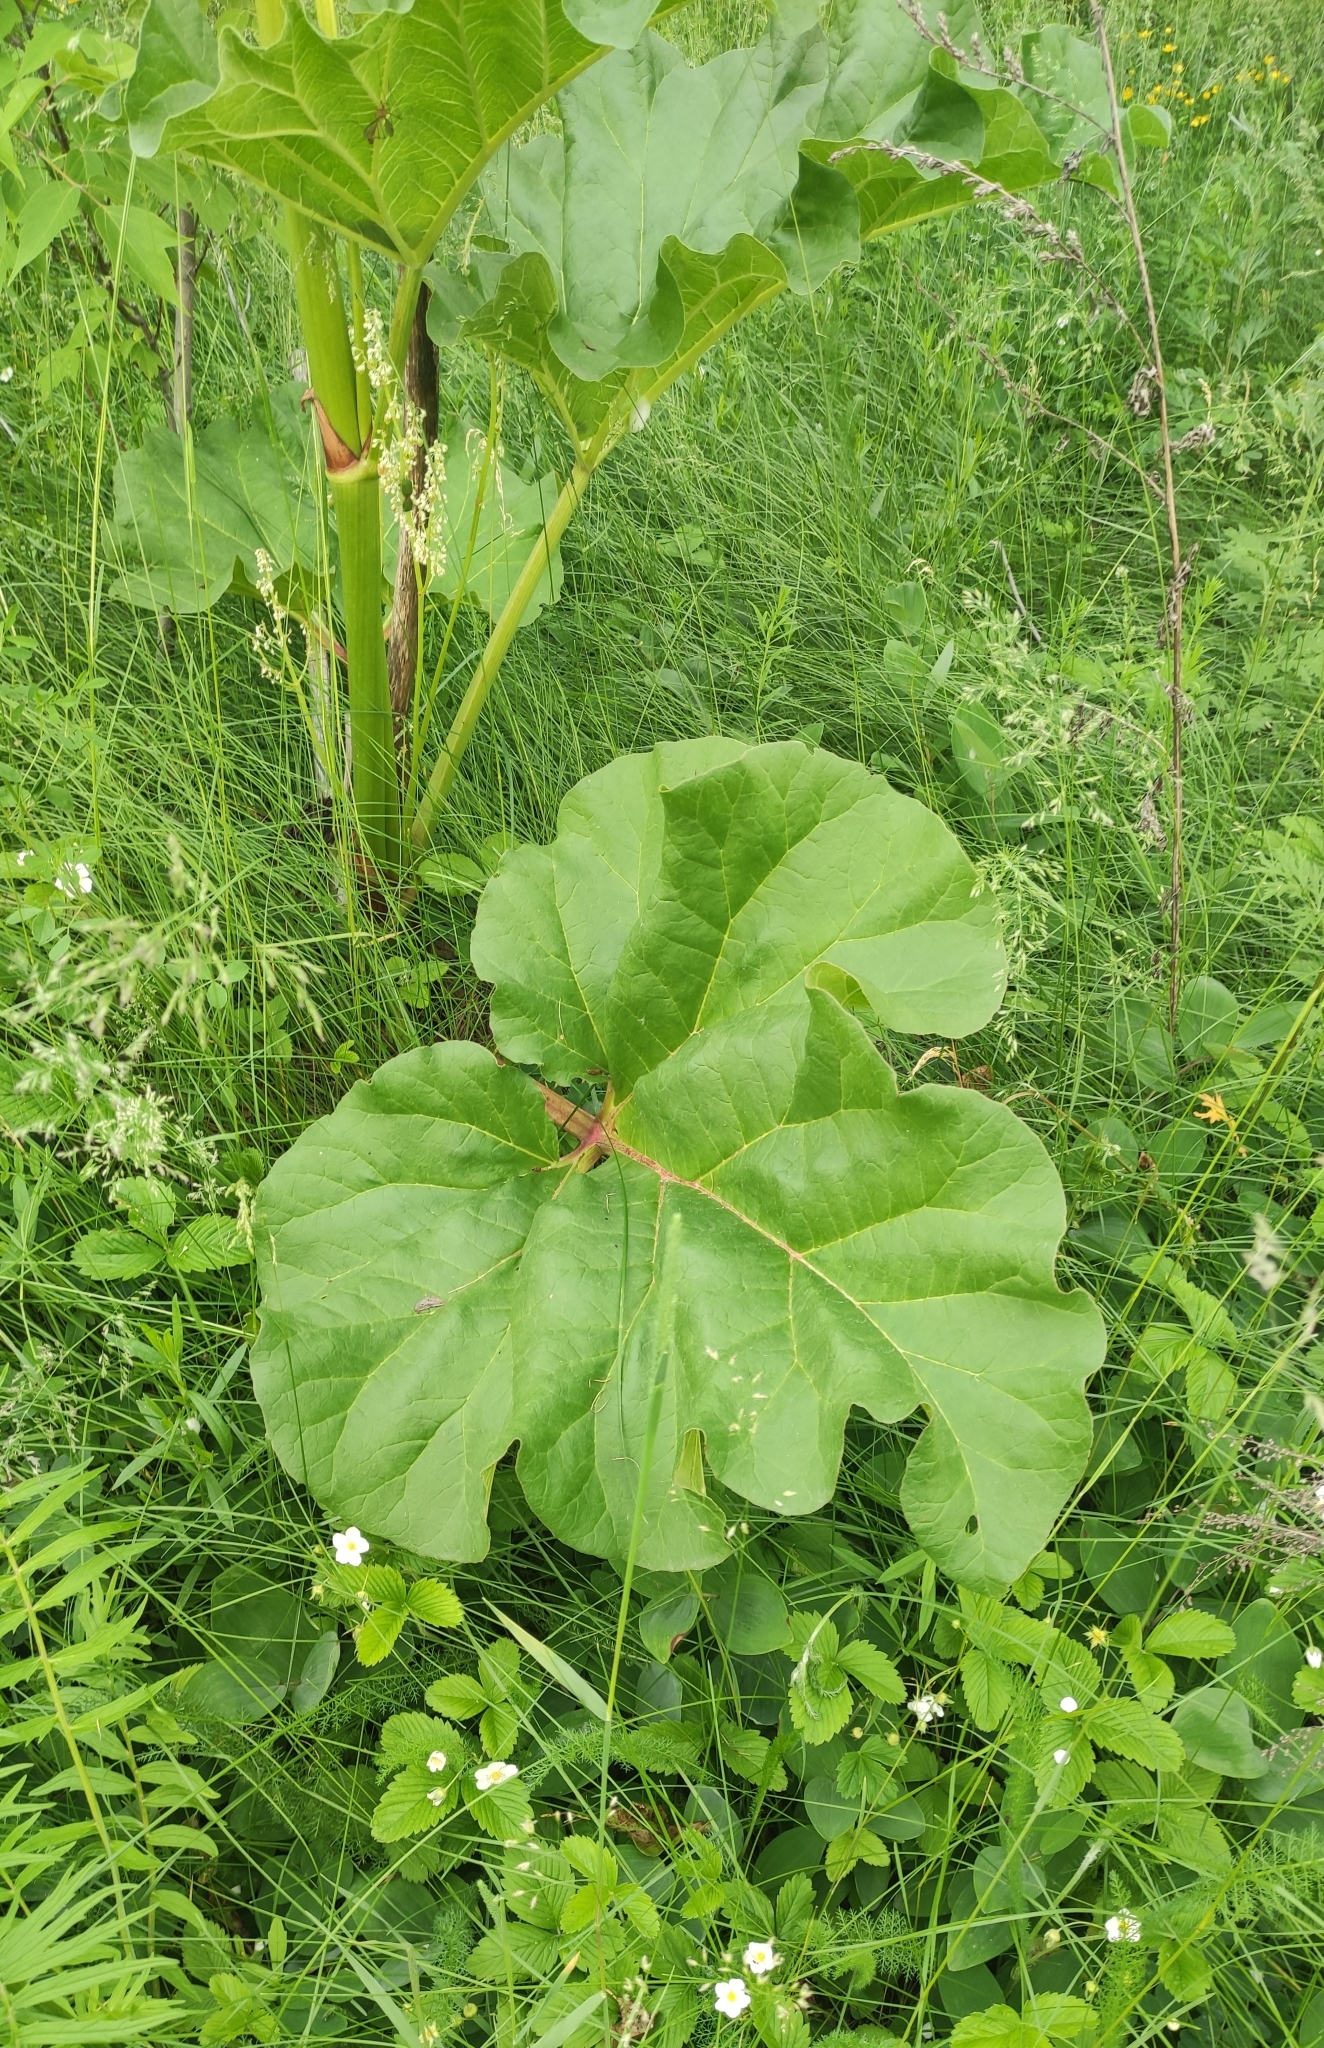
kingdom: Plantae
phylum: Tracheophyta
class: Magnoliopsida
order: Caryophyllales
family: Polygonaceae
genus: Rheum
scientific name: Rheum rhabarbarum
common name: Garden rhubarb
